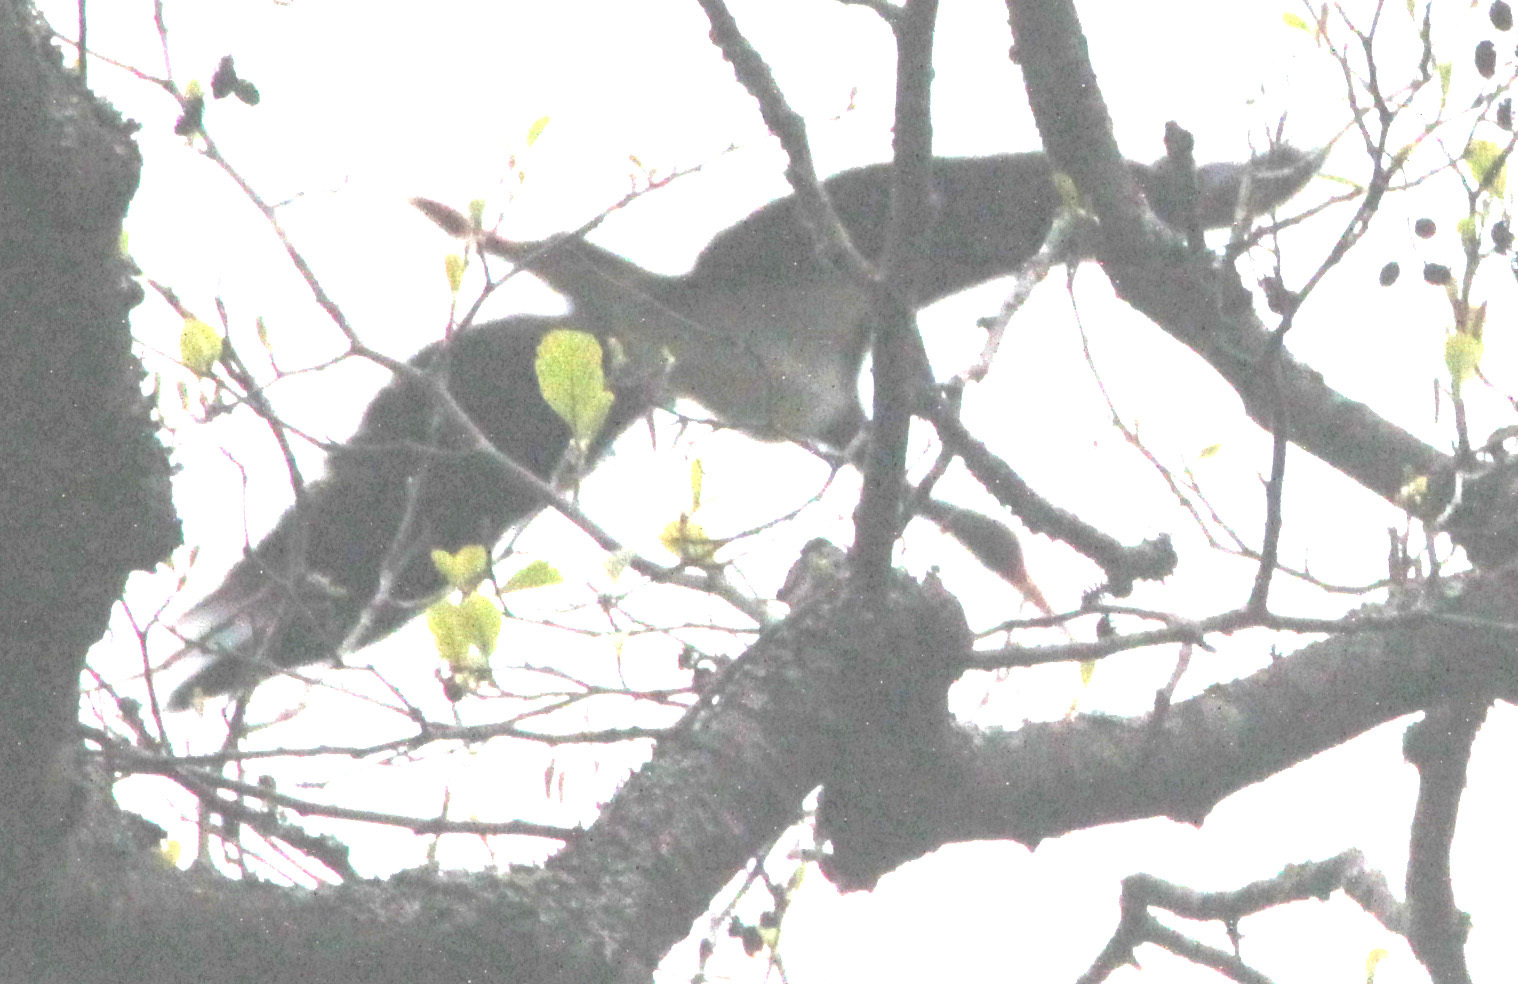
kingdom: Animalia
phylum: Chordata
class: Aves
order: Ciconiiformes
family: Ciconiidae
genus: Ciconia
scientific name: Ciconia nigra
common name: Black stork
